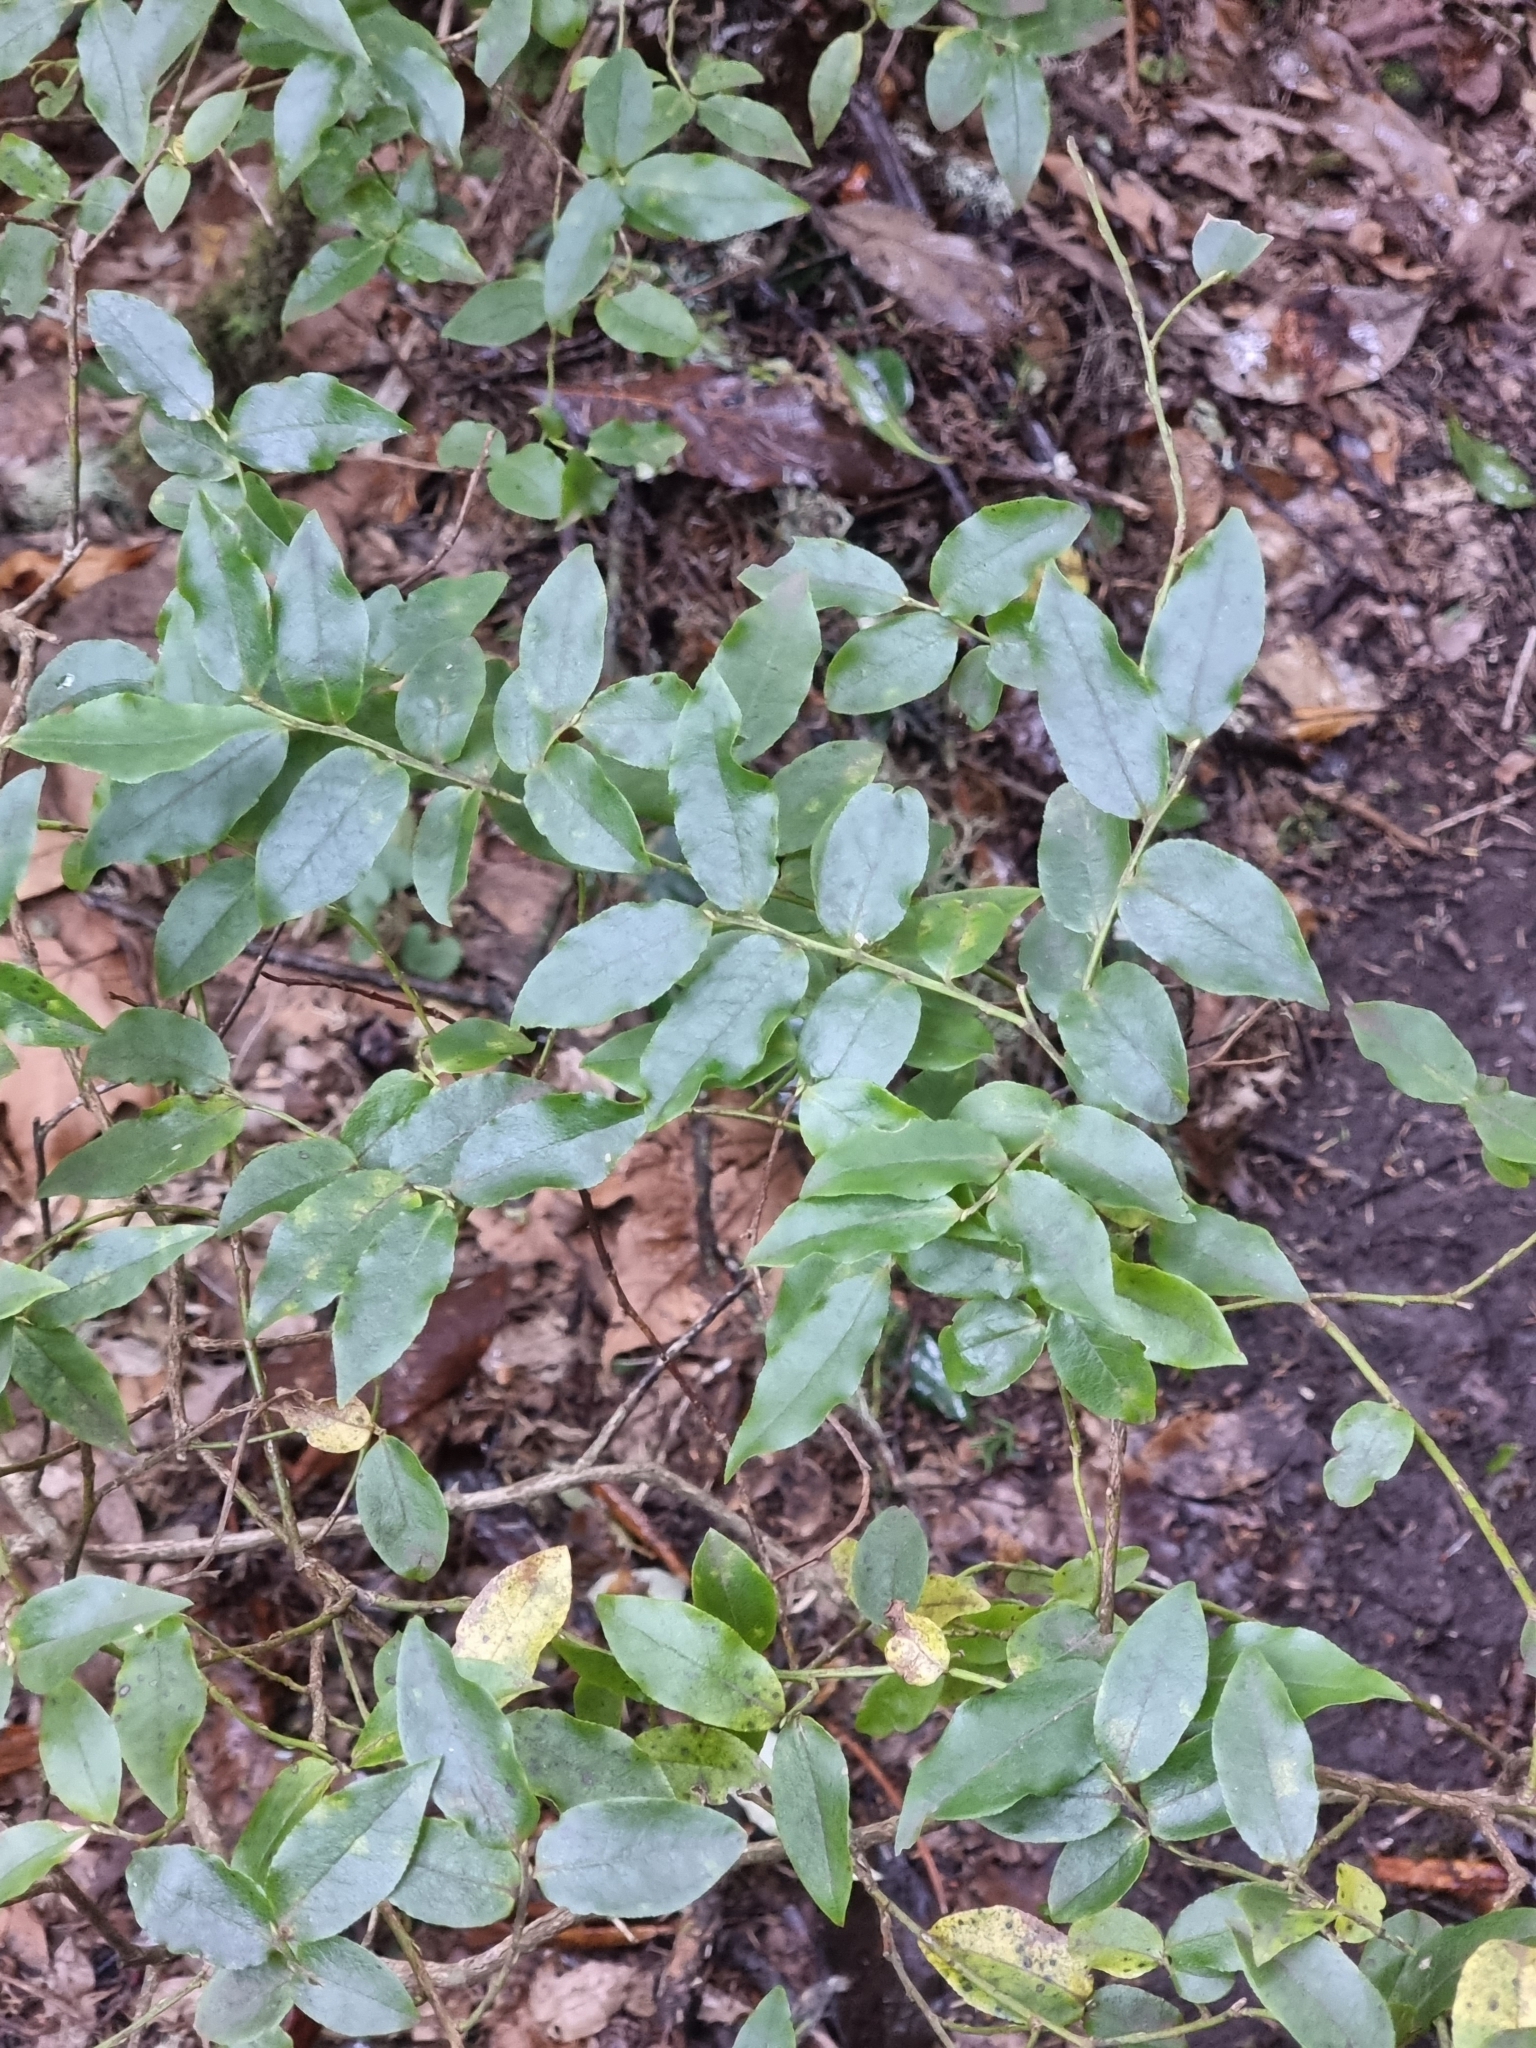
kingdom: Plantae
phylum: Tracheophyta
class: Magnoliopsida
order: Ericales
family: Ericaceae
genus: Vaccinium
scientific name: Vaccinium padifolium
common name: Madeiran blueberry
